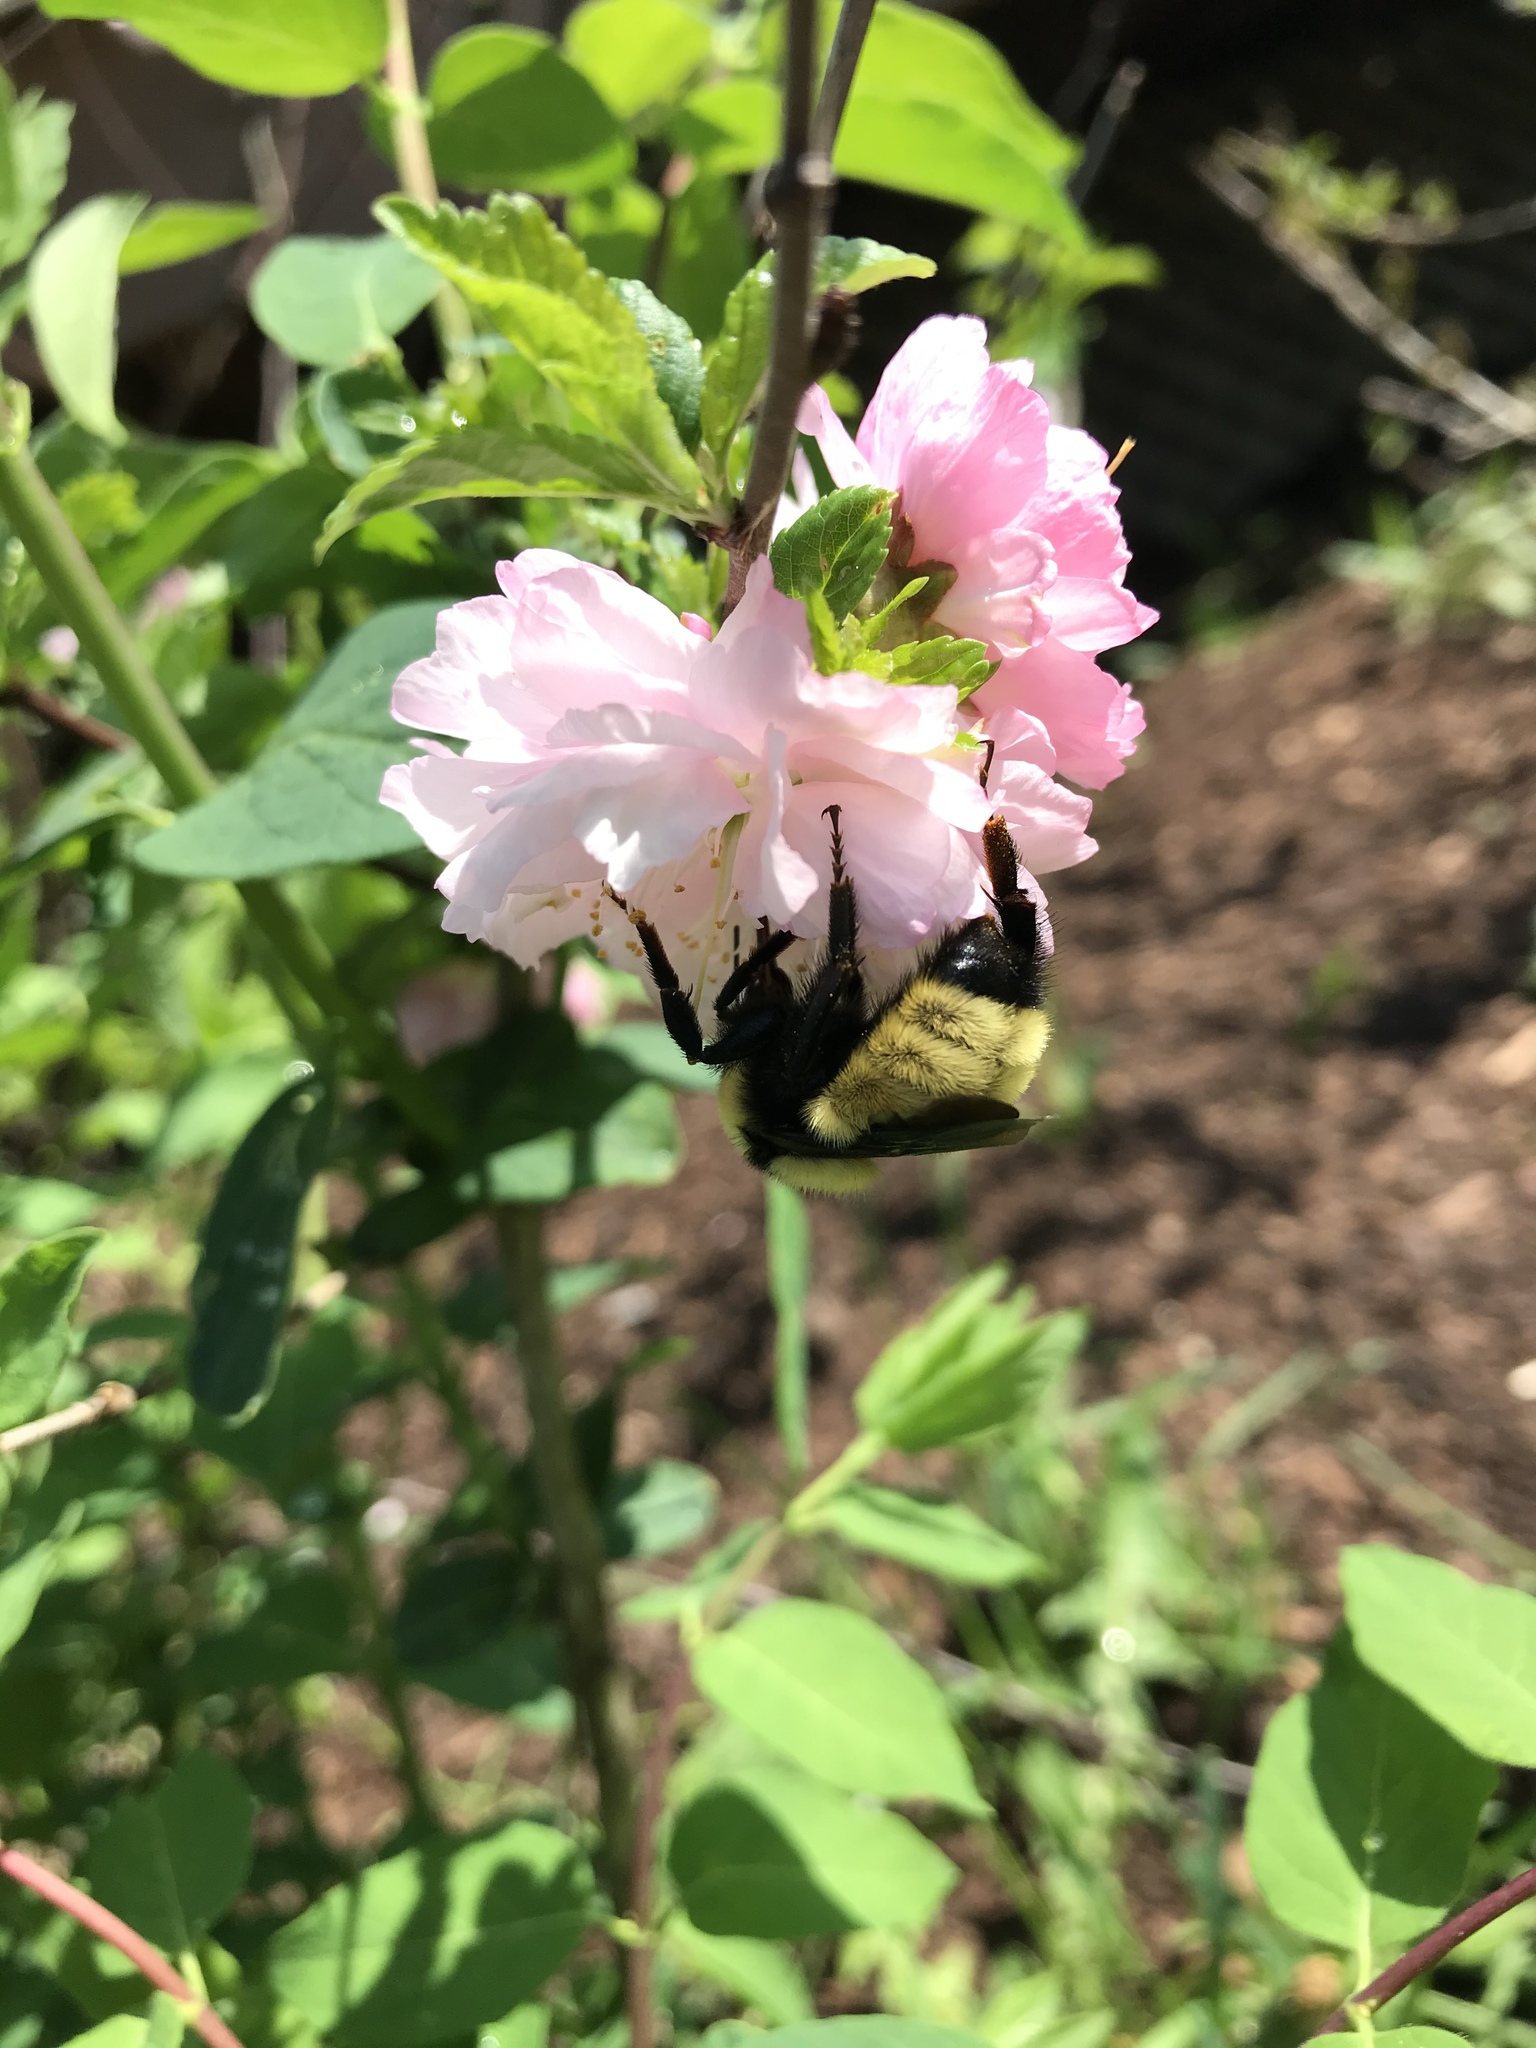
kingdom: Animalia
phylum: Arthropoda
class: Insecta
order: Hymenoptera
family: Apidae
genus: Bombus
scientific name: Bombus fervidus
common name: Yellow bumble bee
